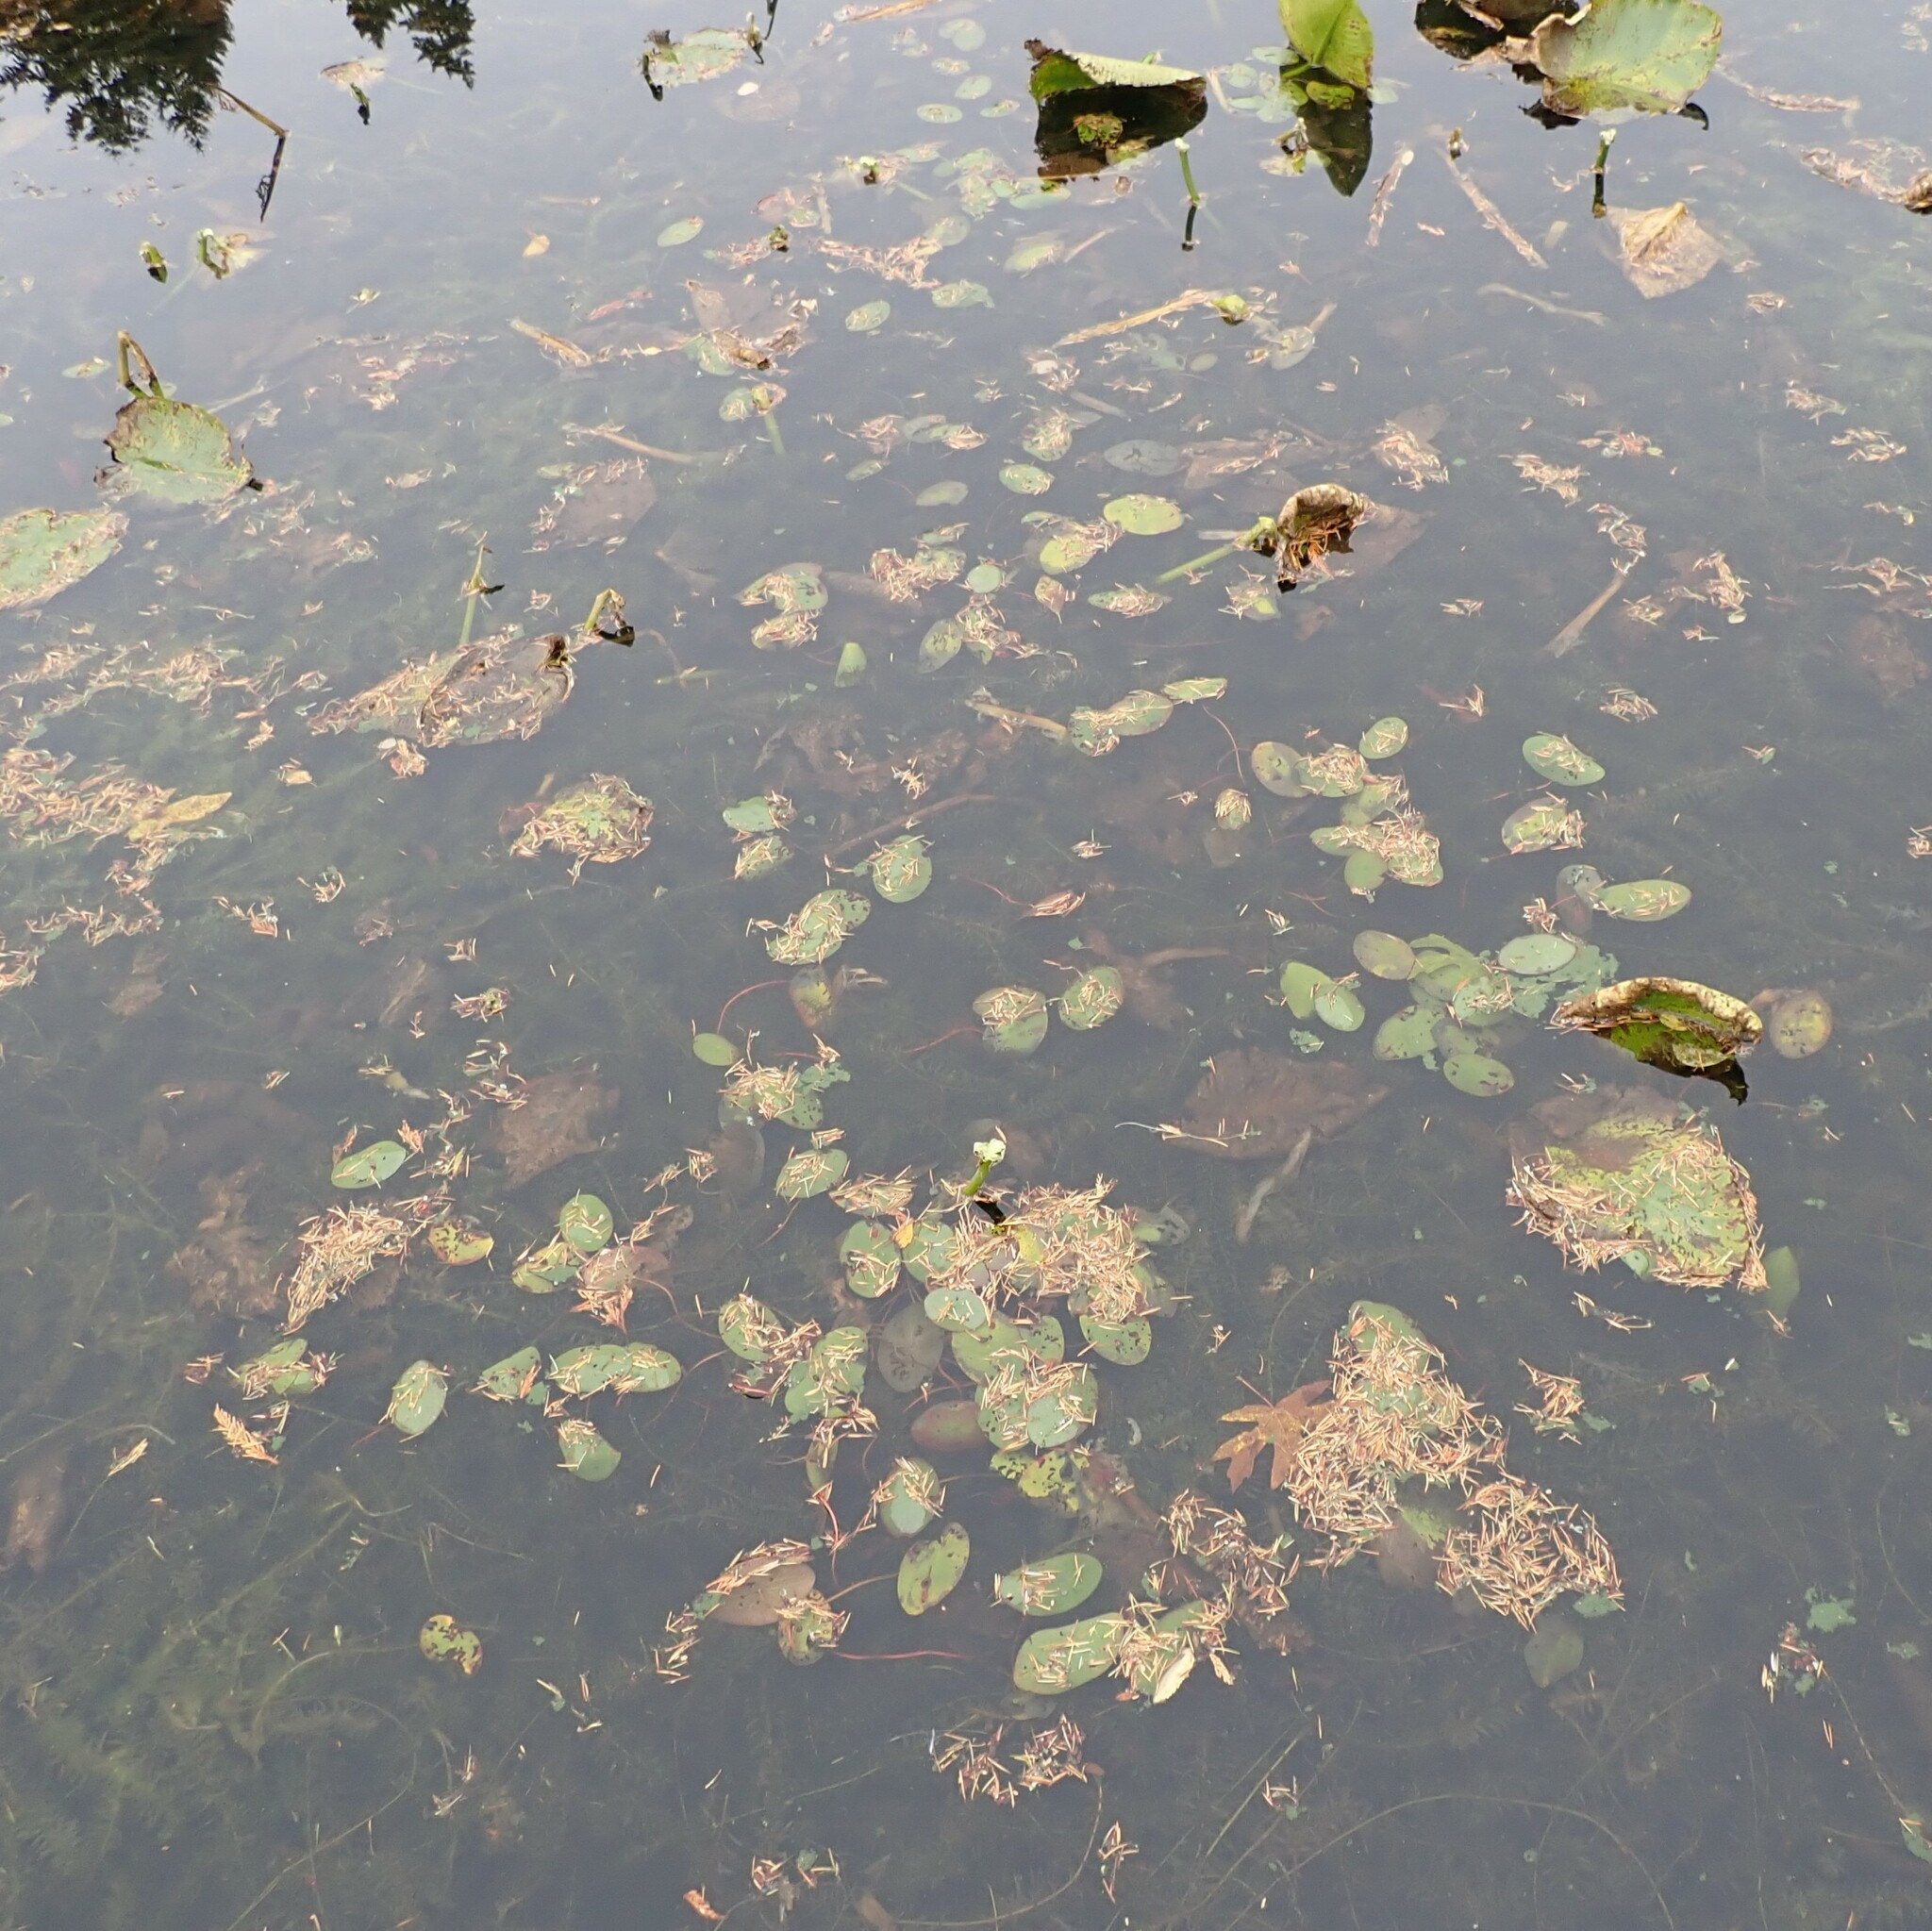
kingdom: Plantae
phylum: Tracheophyta
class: Magnoliopsida
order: Nymphaeales
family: Cabombaceae
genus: Brasenia
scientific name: Brasenia schreberi
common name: Water-shield
